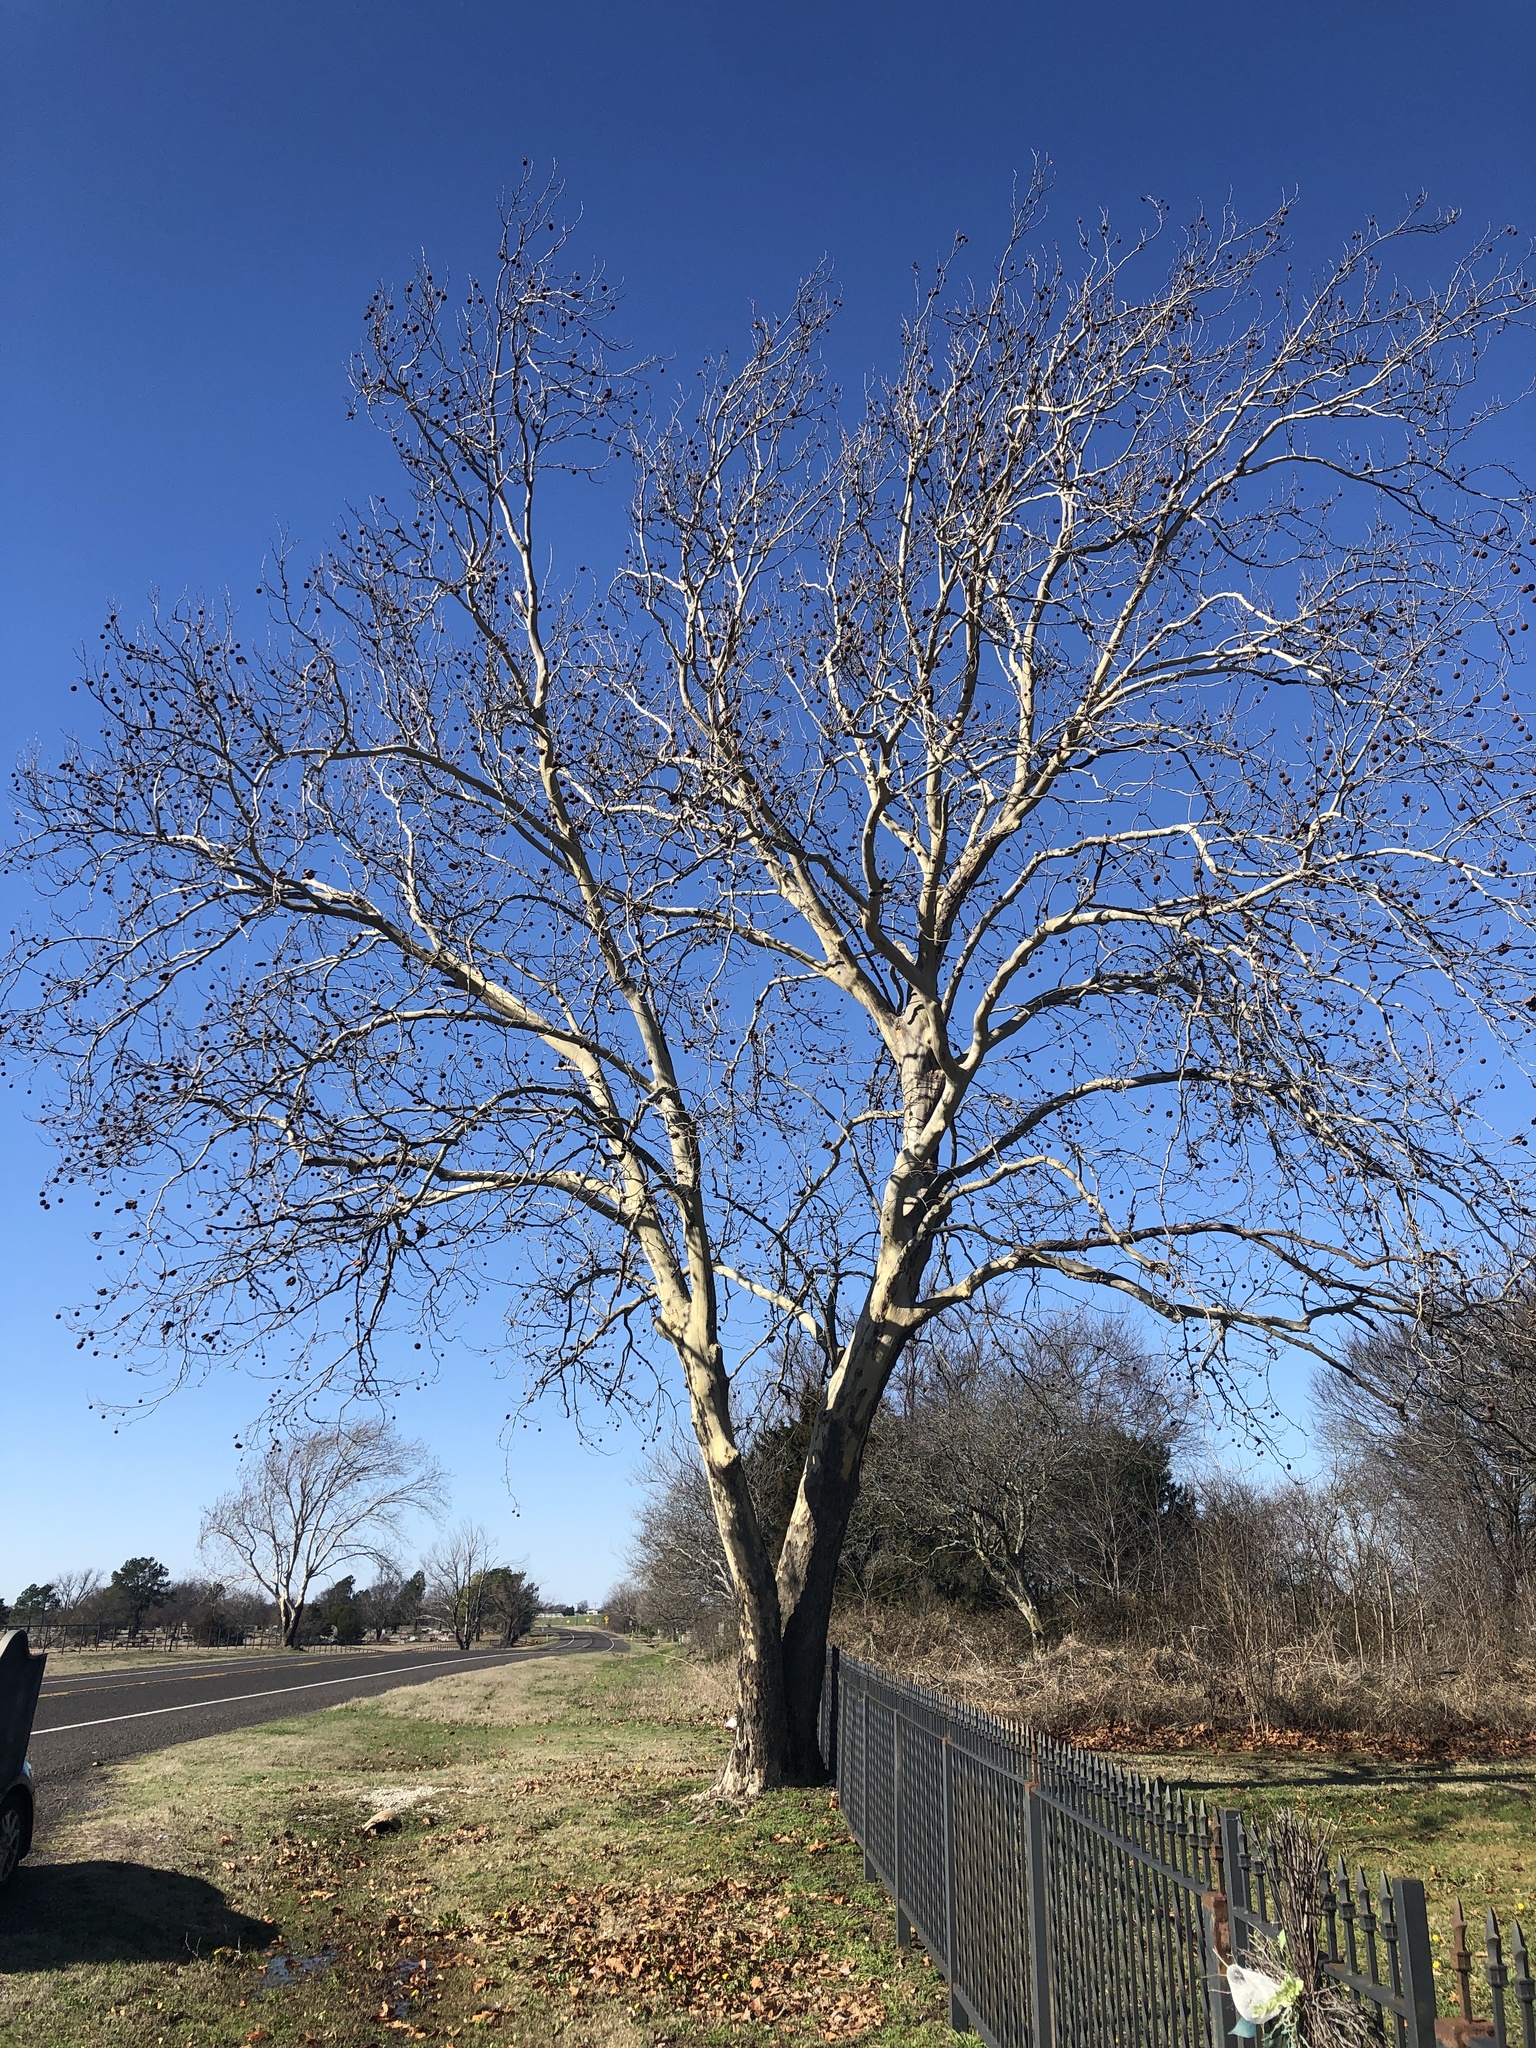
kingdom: Plantae
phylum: Tracheophyta
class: Magnoliopsida
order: Proteales
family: Platanaceae
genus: Platanus
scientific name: Platanus occidentalis
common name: American sycamore
